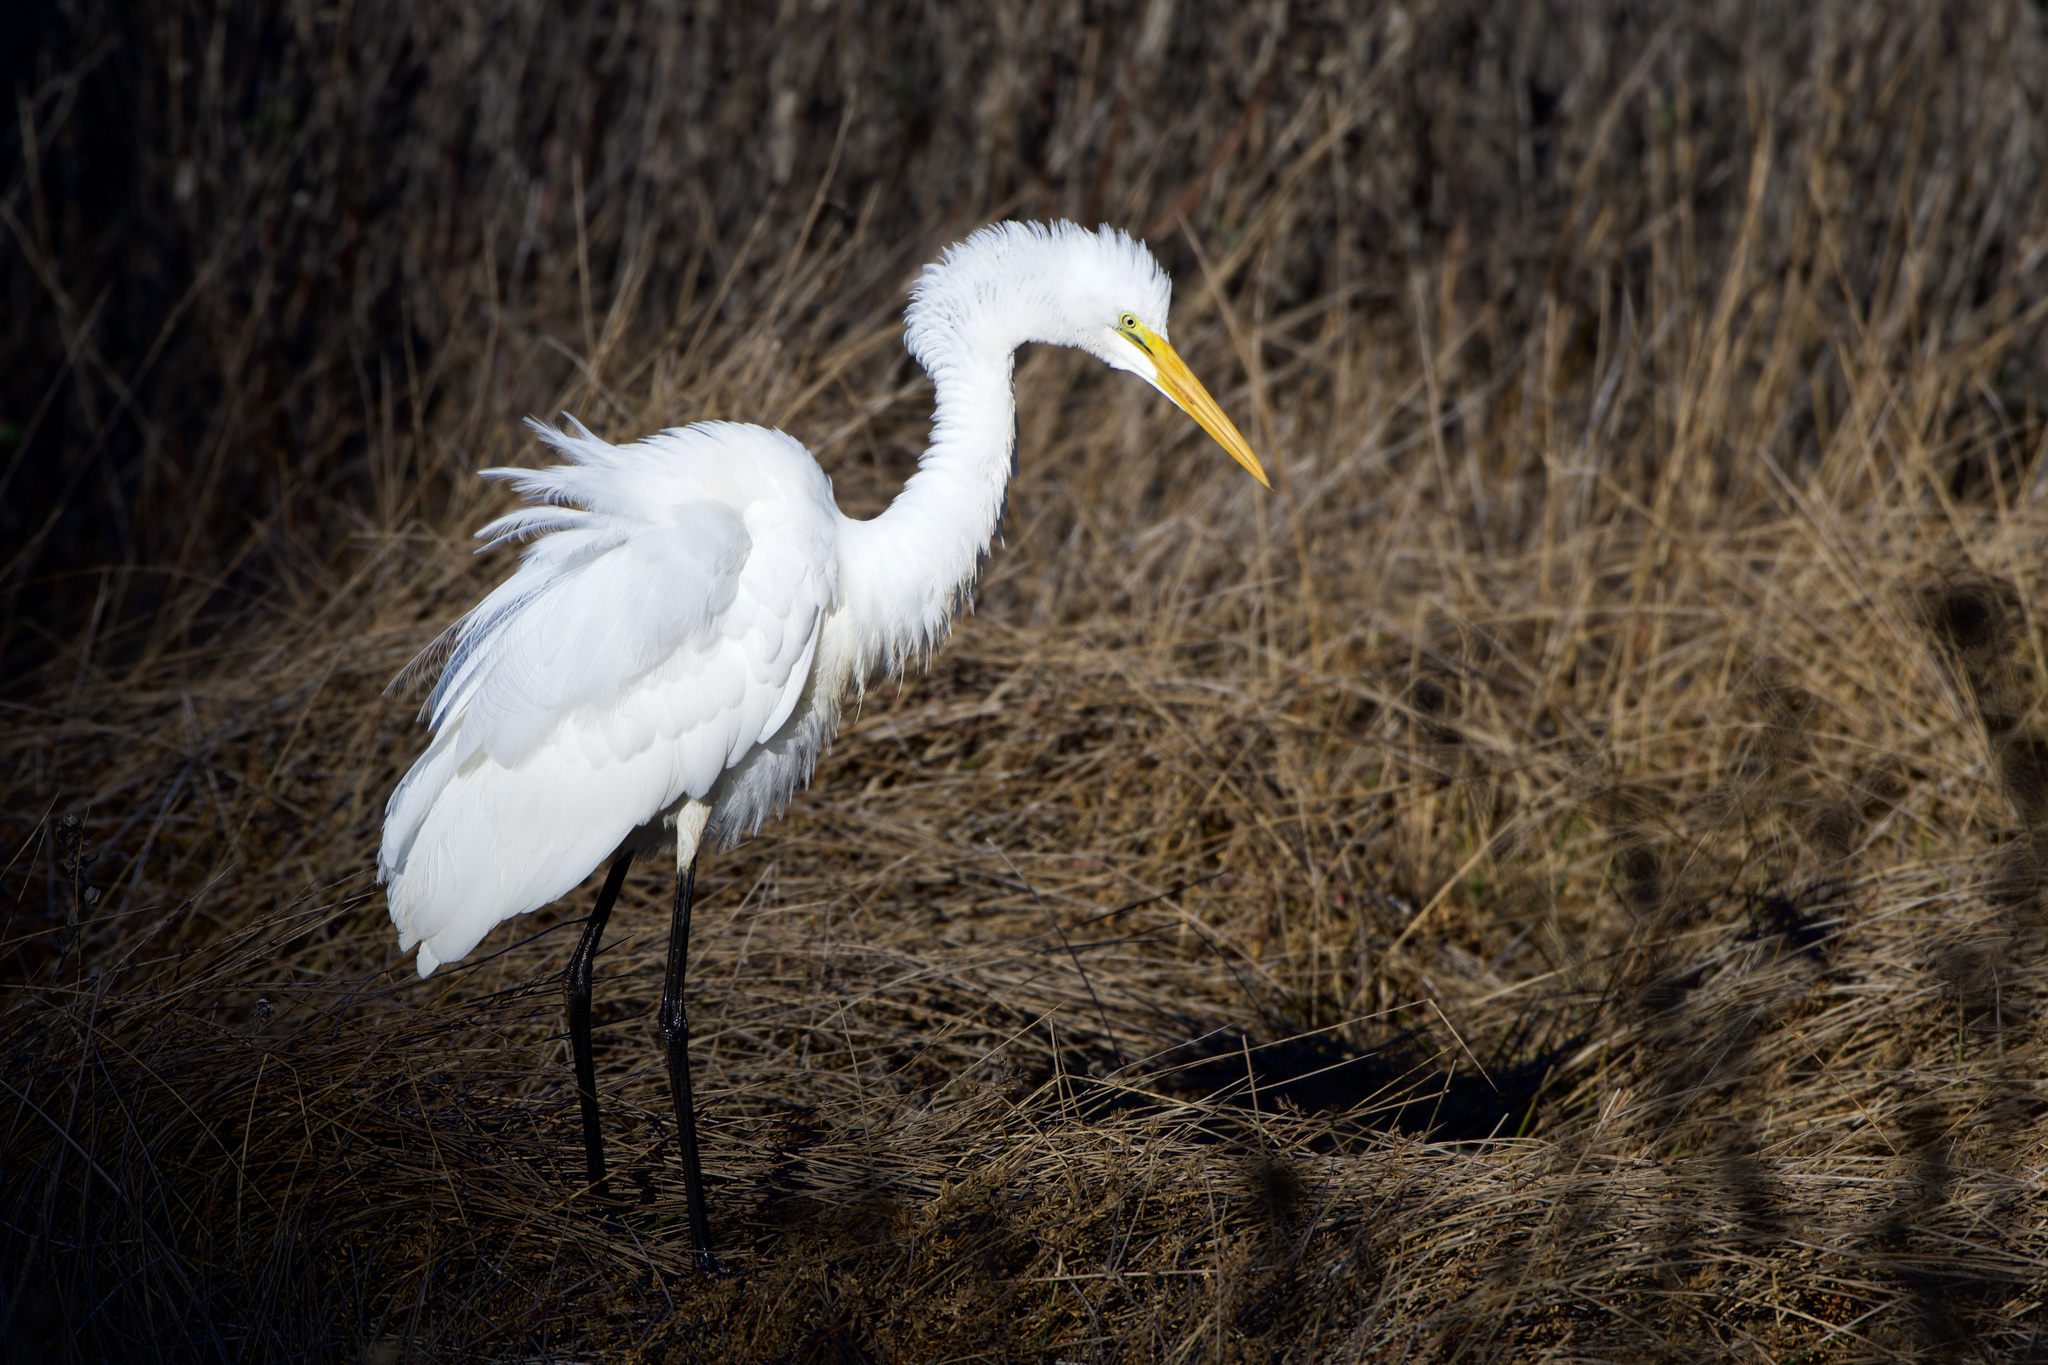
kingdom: Animalia
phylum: Chordata
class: Aves
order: Pelecaniformes
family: Ardeidae
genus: Ardea
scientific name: Ardea alba
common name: Great egret
